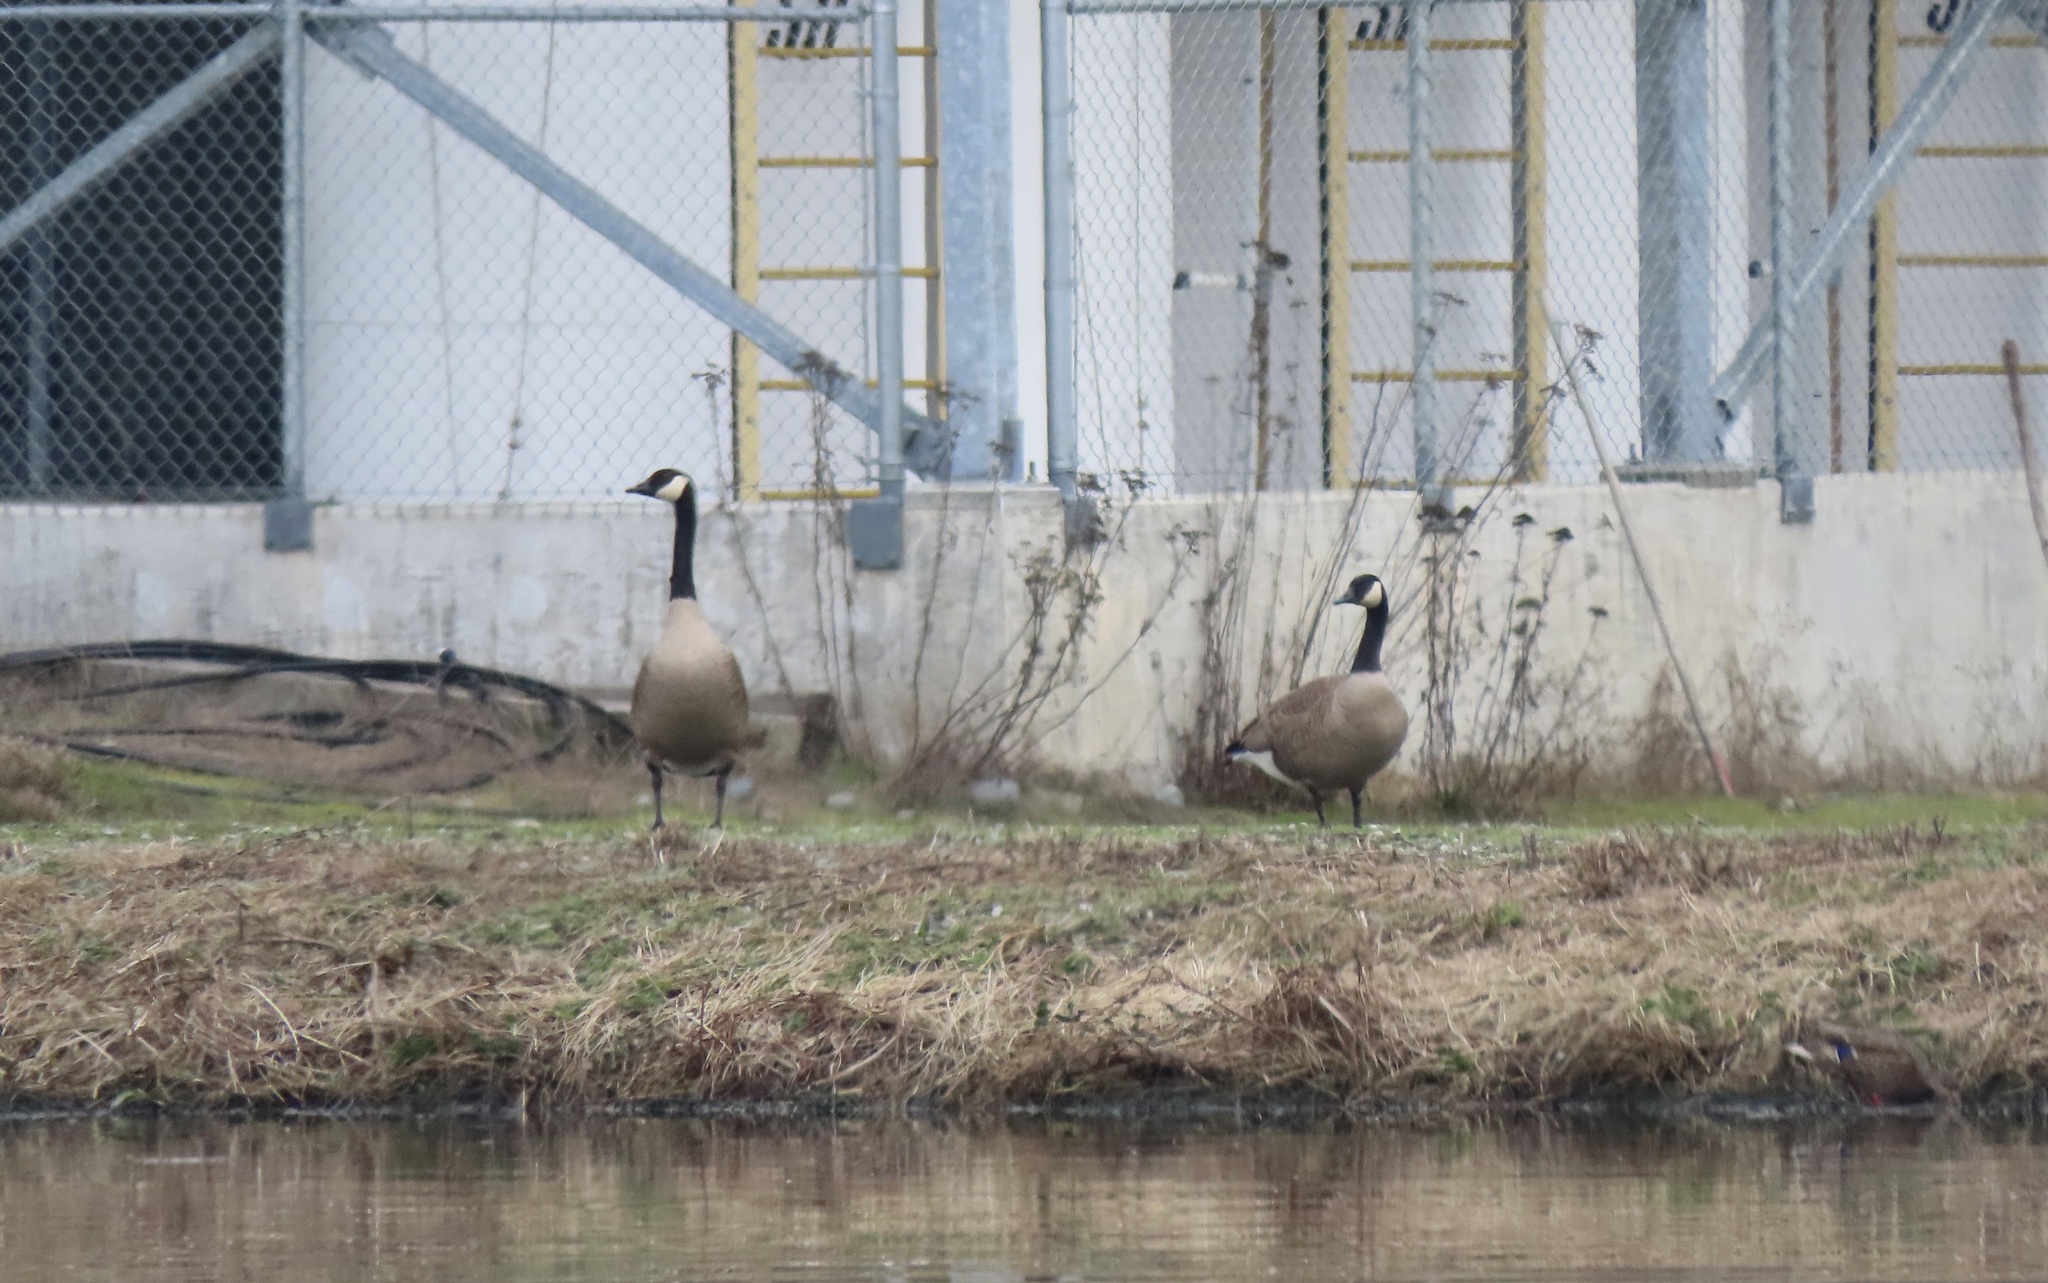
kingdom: Animalia
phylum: Chordata
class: Aves
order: Anseriformes
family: Anatidae
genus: Branta
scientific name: Branta canadensis
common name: Canada goose
